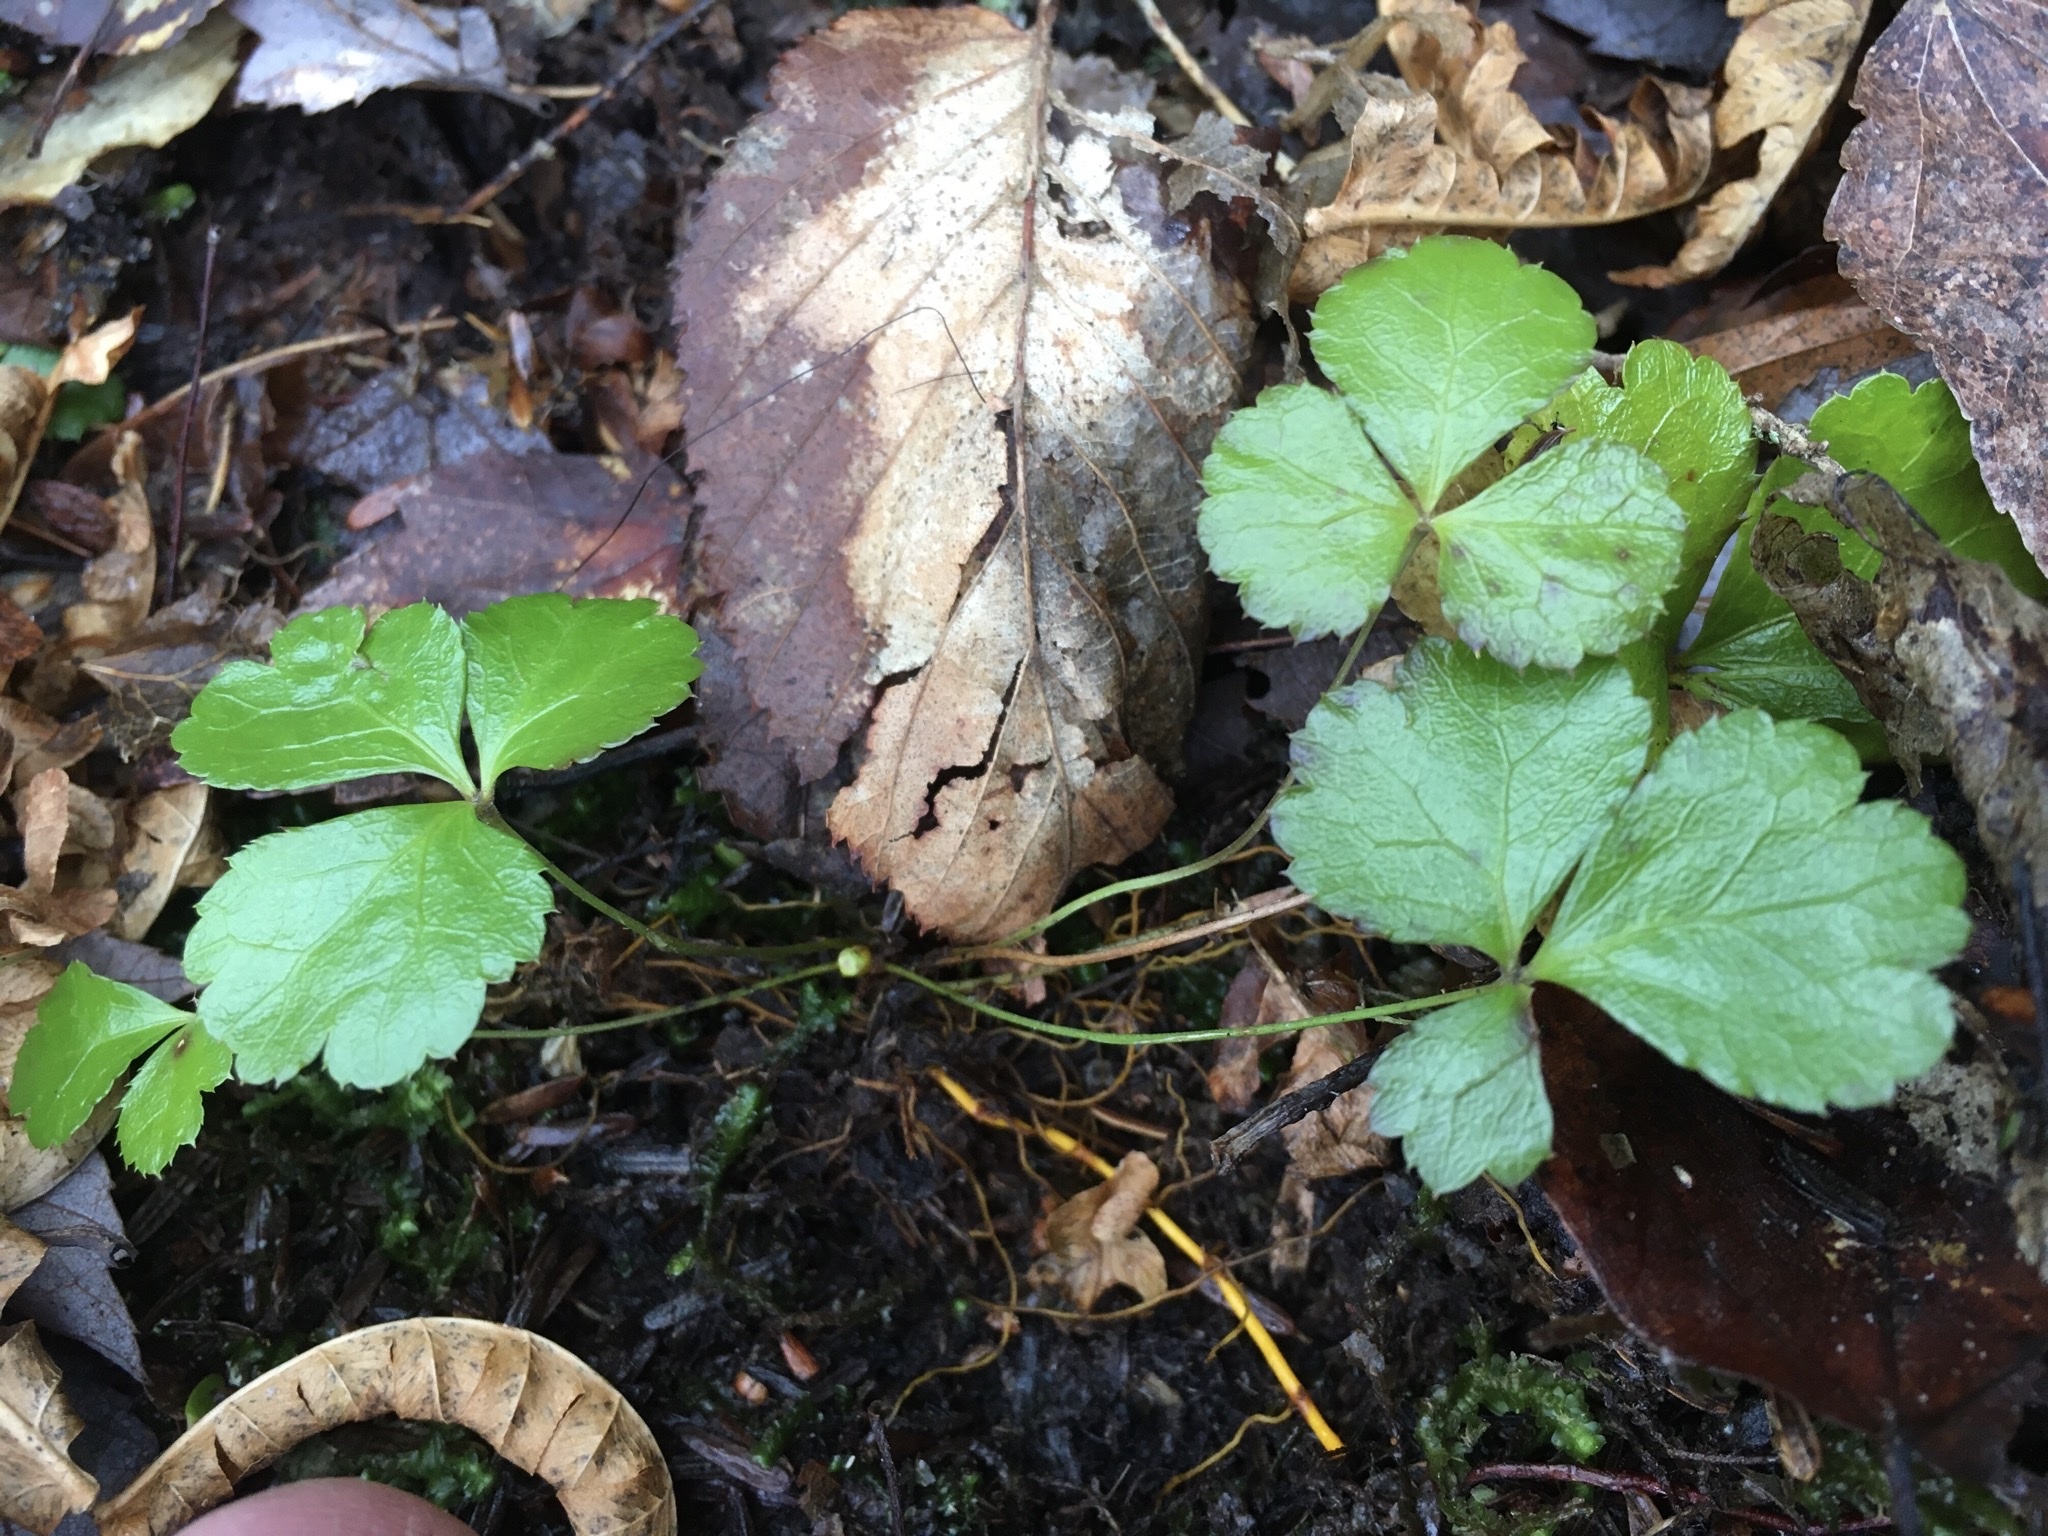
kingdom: Plantae
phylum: Tracheophyta
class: Magnoliopsida
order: Ranunculales
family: Ranunculaceae
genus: Coptis
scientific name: Coptis trifolia
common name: Canker-root
